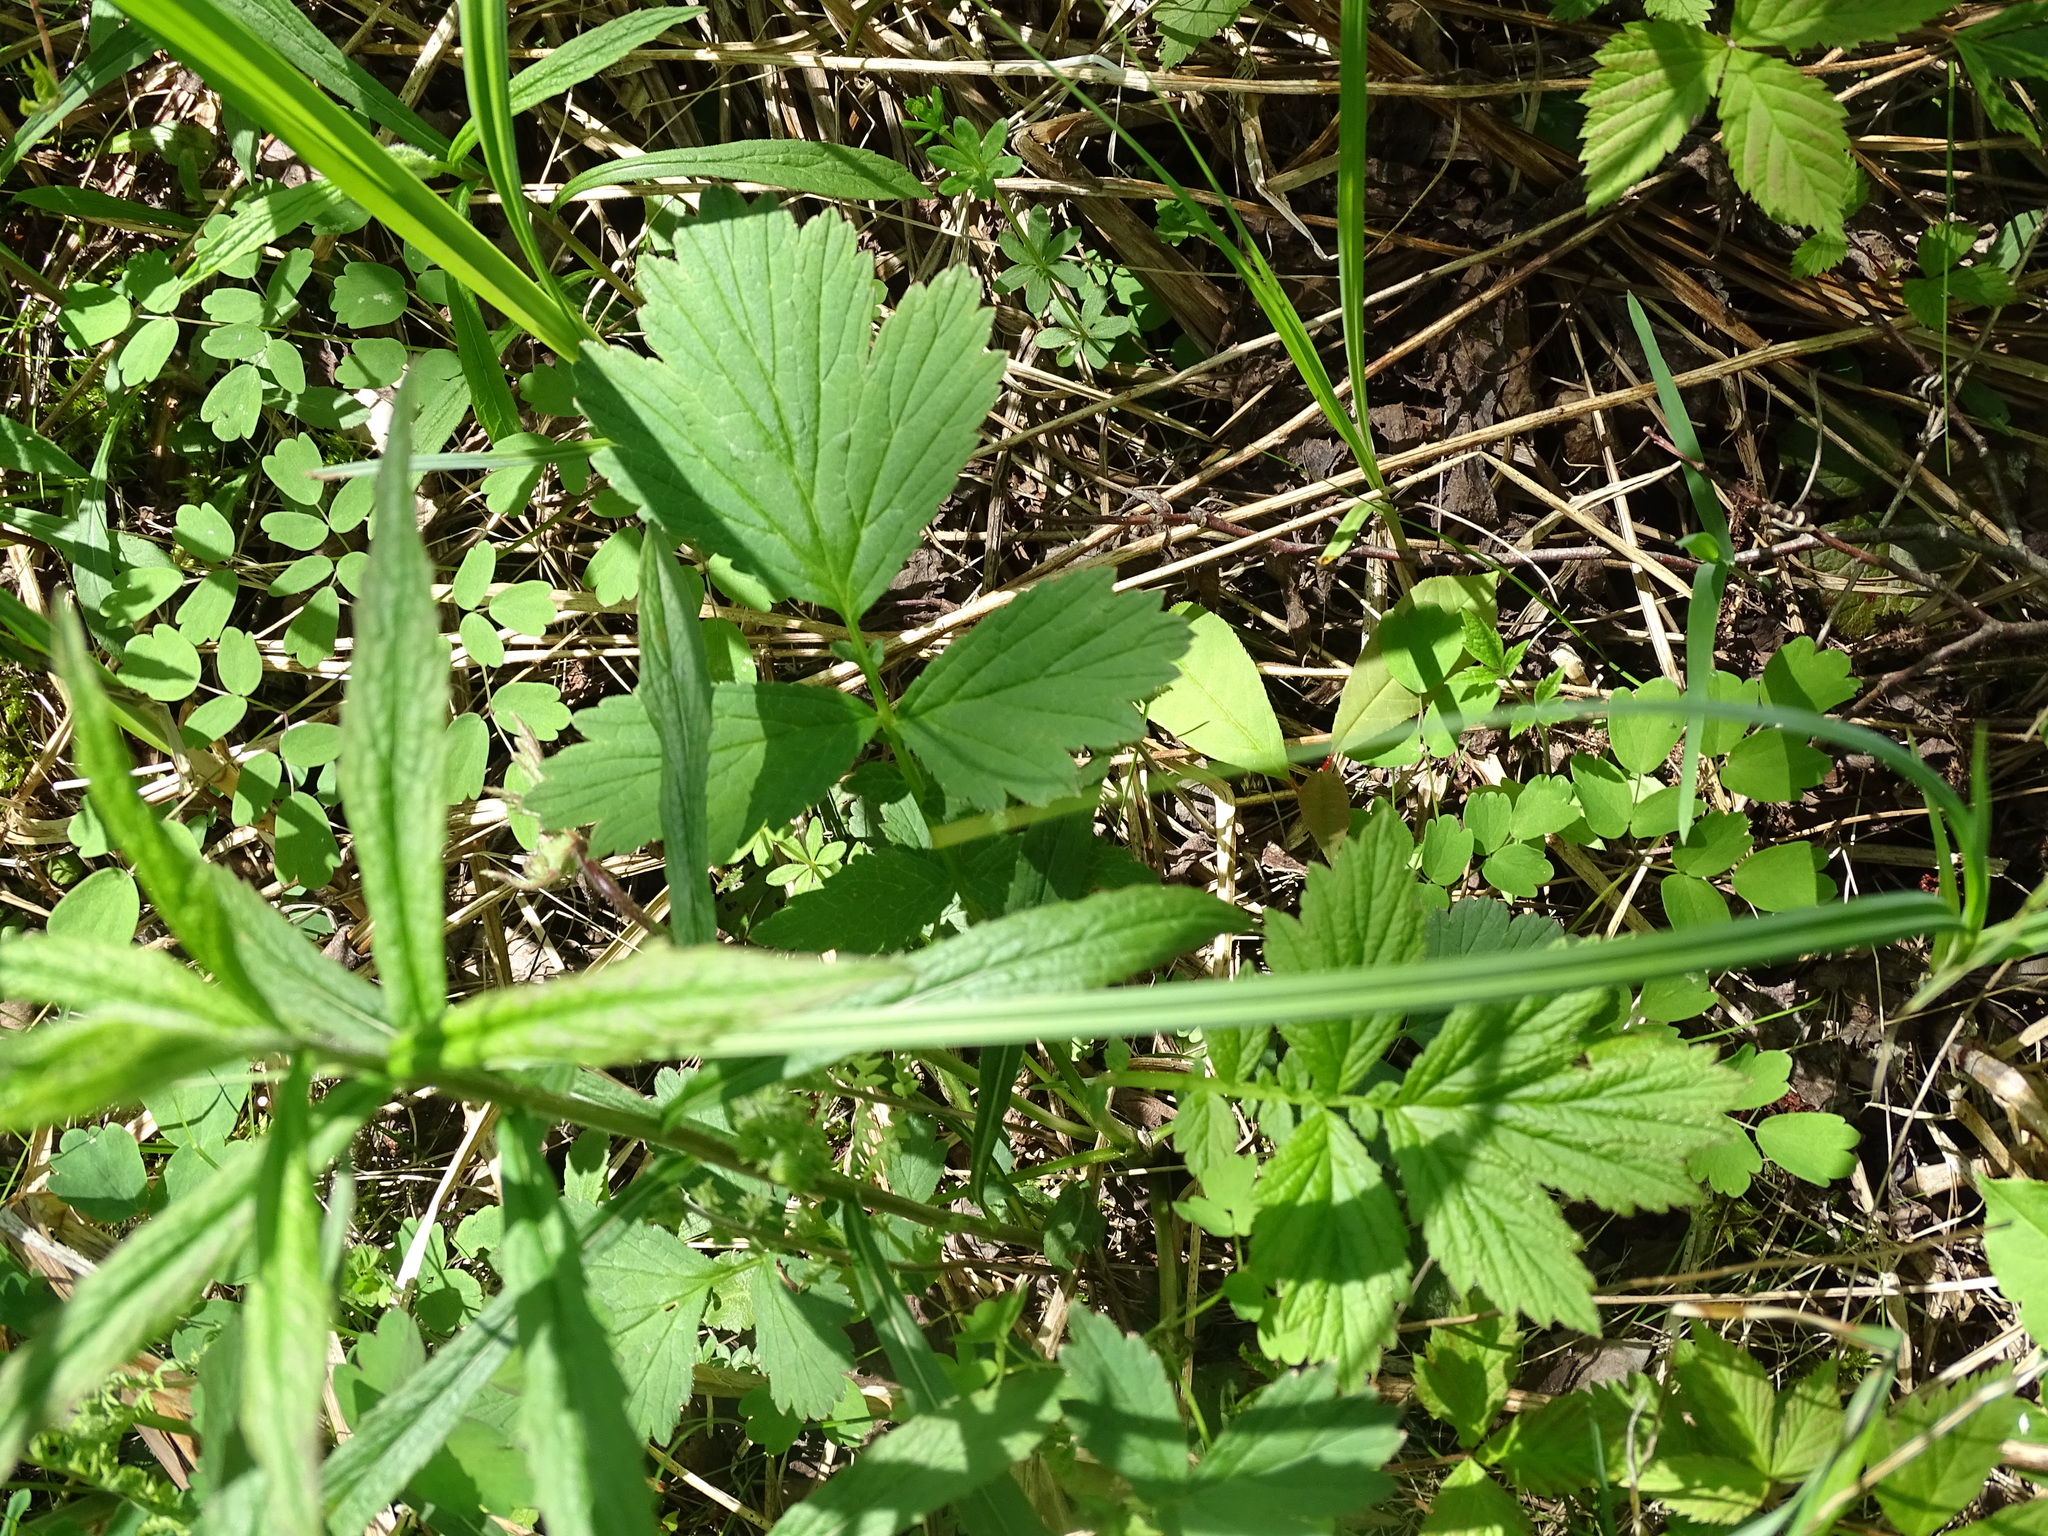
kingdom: Plantae
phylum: Tracheophyta
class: Magnoliopsida
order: Rosales
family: Rosaceae
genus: Geum
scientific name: Geum rivale
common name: Water avens
